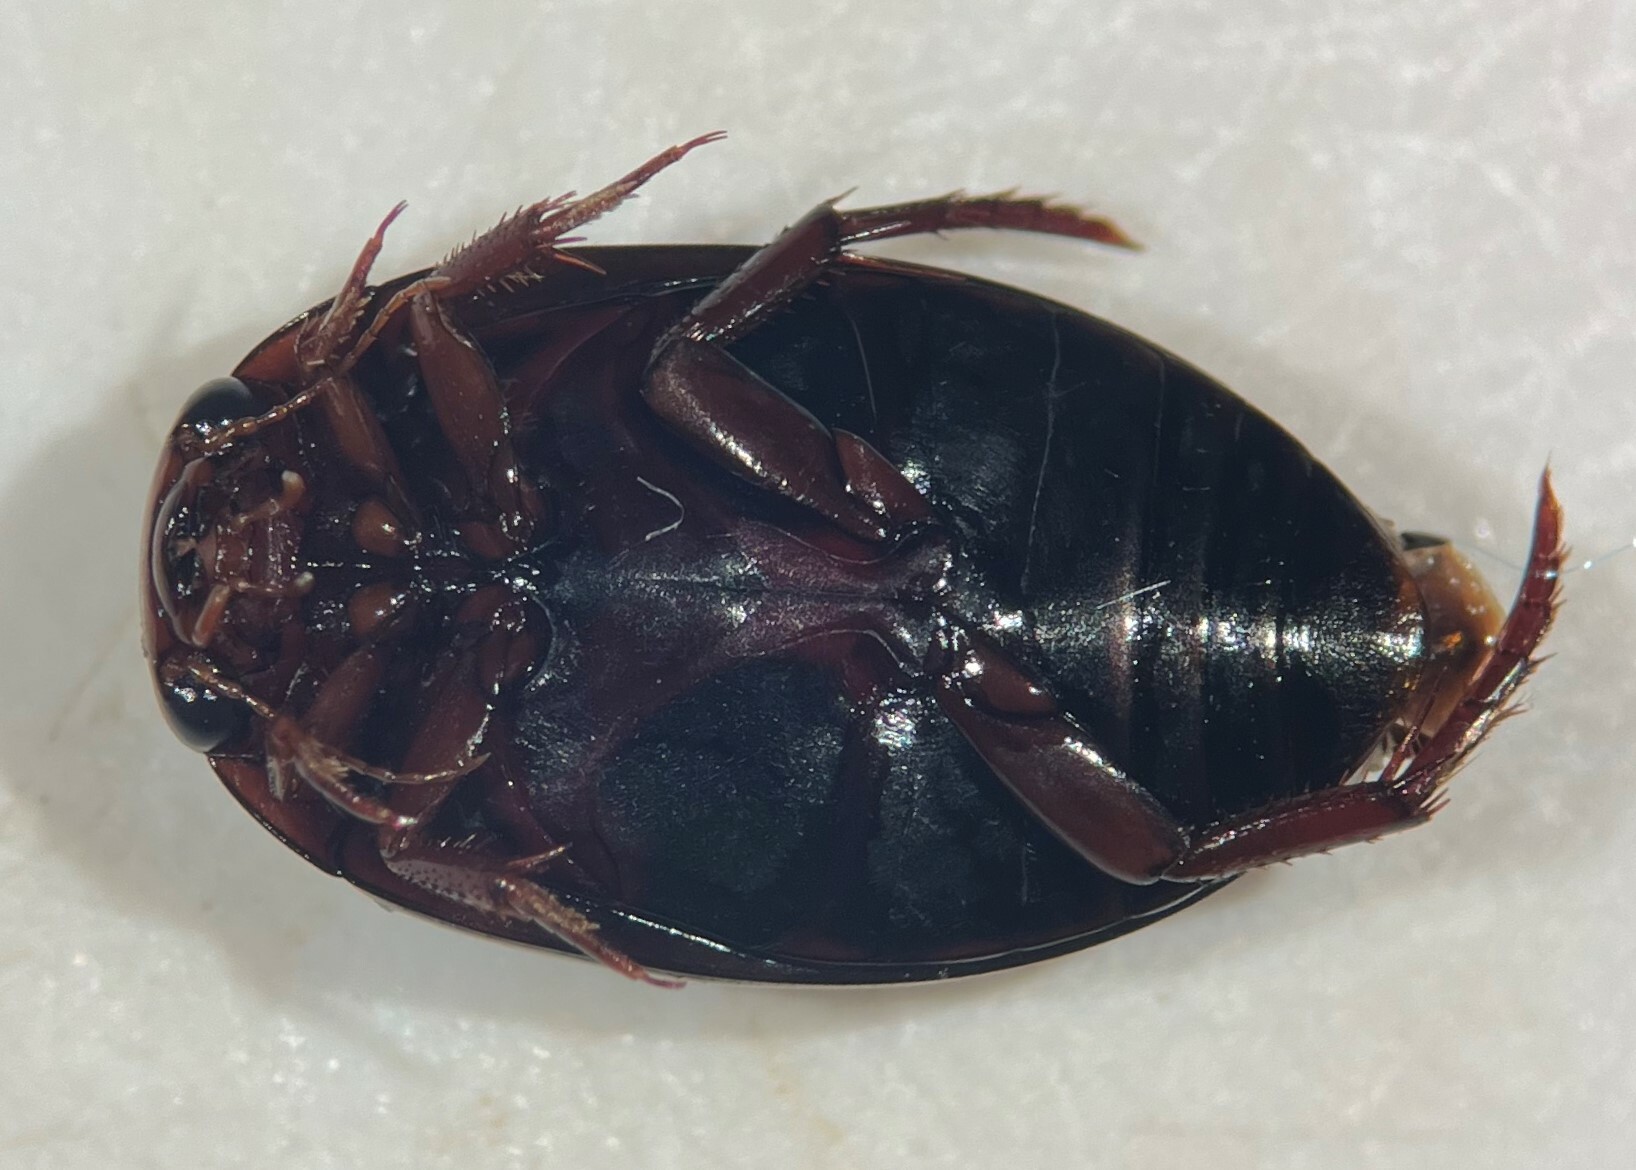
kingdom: Animalia
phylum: Arthropoda
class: Insecta
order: Coleoptera
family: Dytiscidae
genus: Ilybius
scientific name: Ilybius gagates
